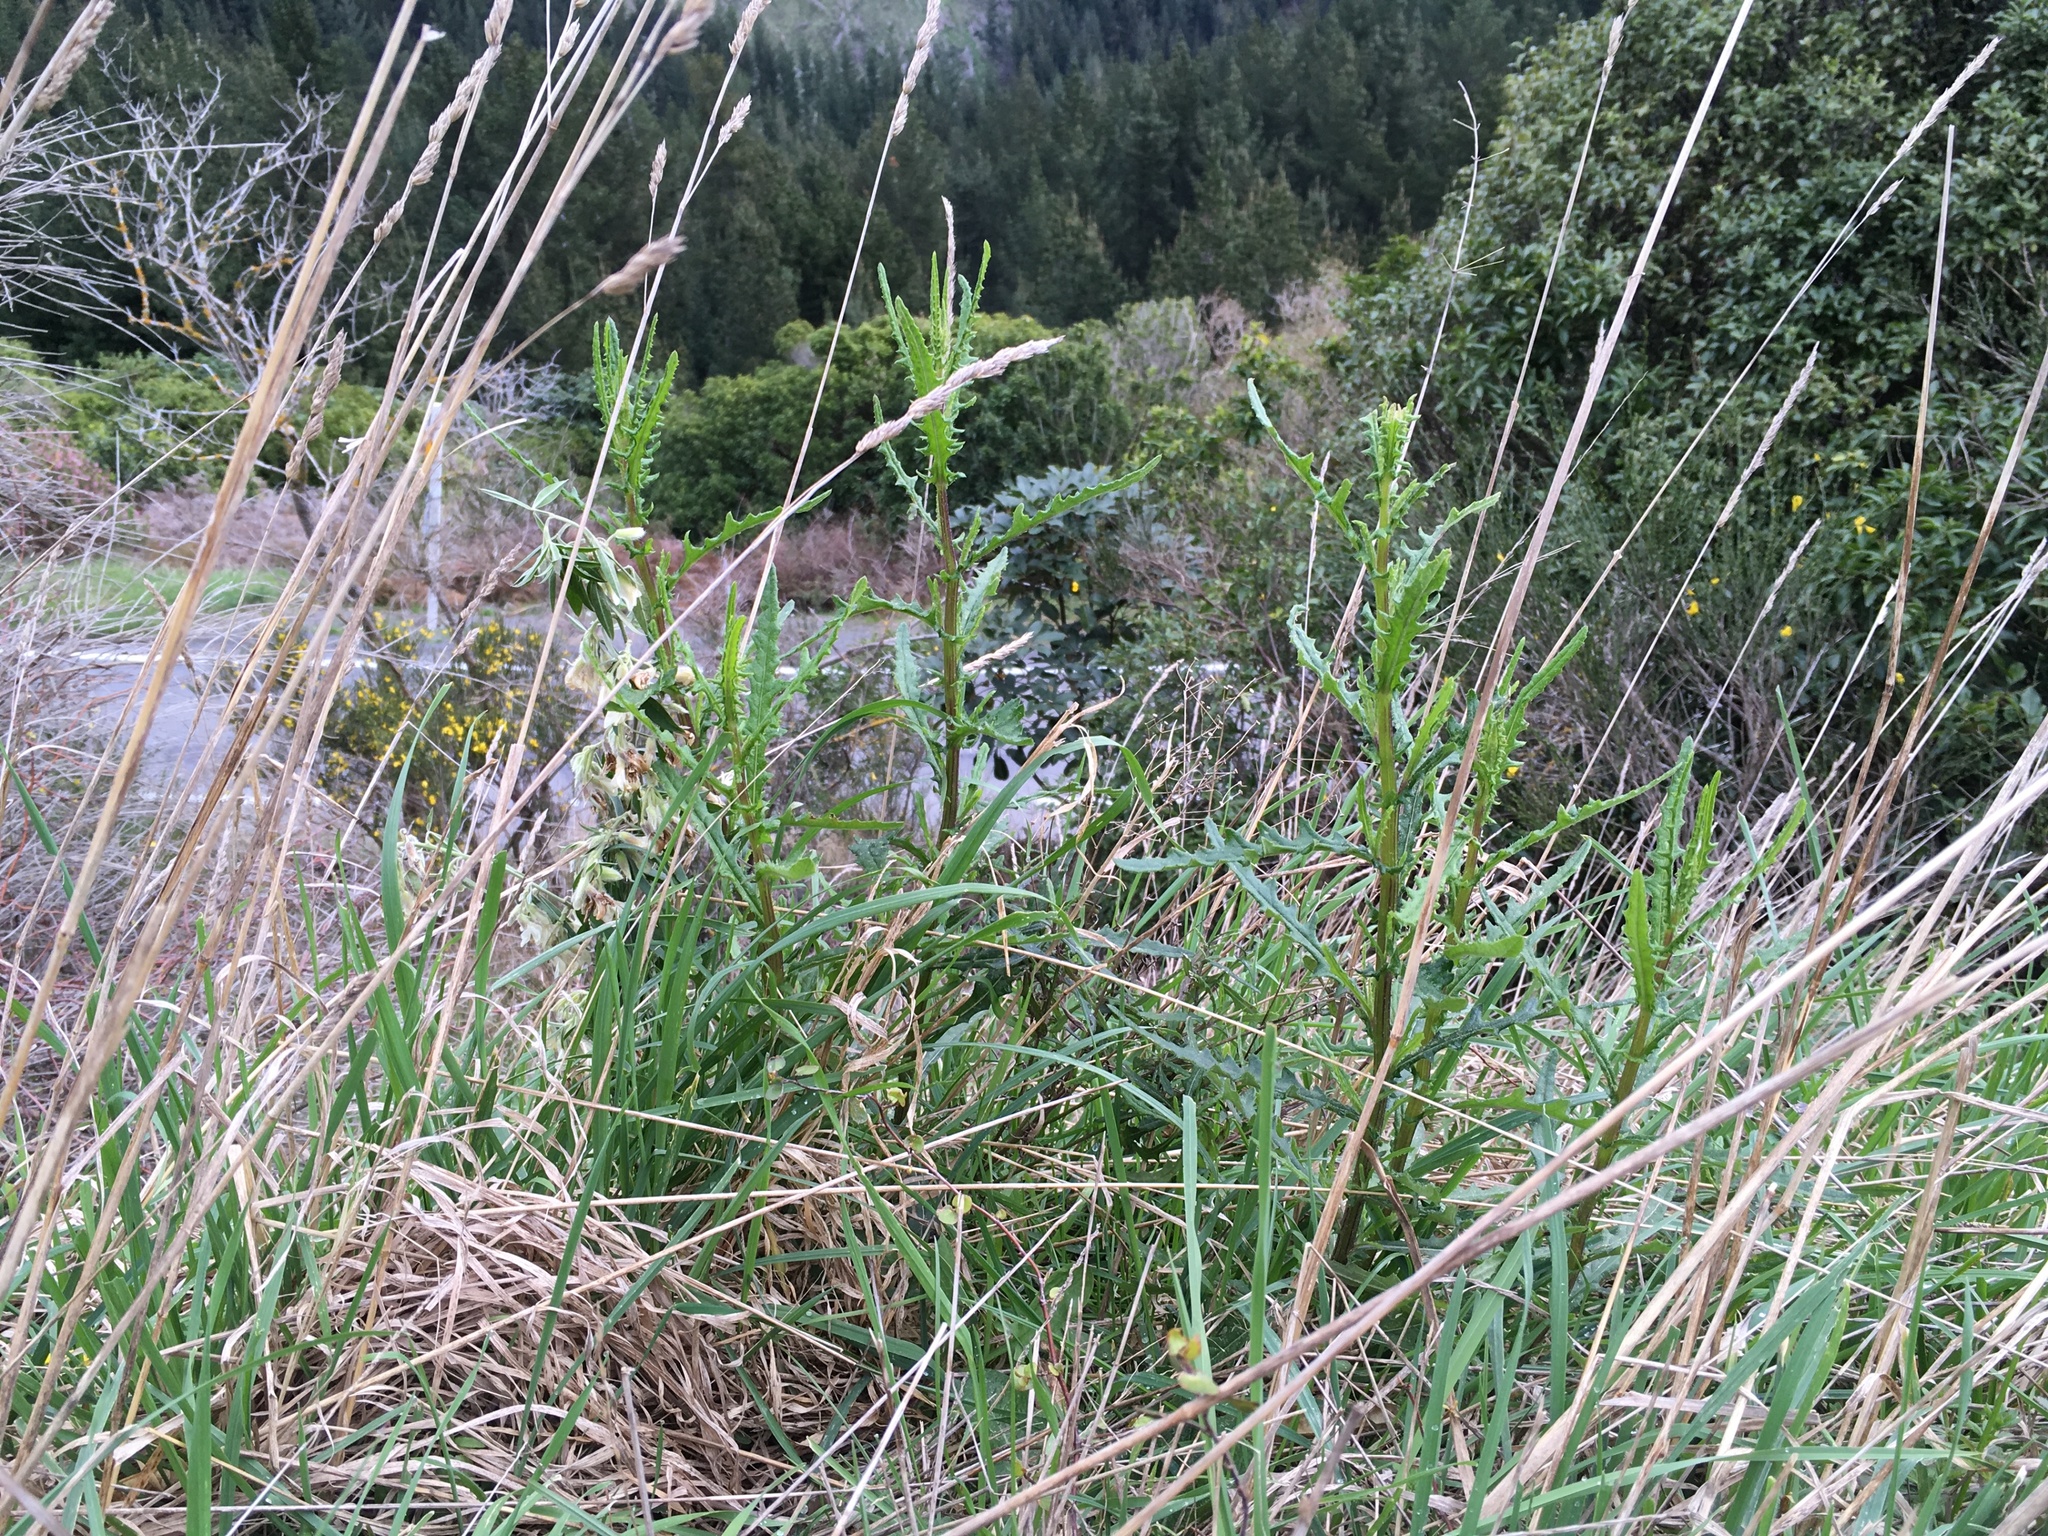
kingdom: Plantae
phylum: Tracheophyta
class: Magnoliopsida
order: Asterales
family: Asteraceae
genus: Senecio
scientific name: Senecio hispidulus
